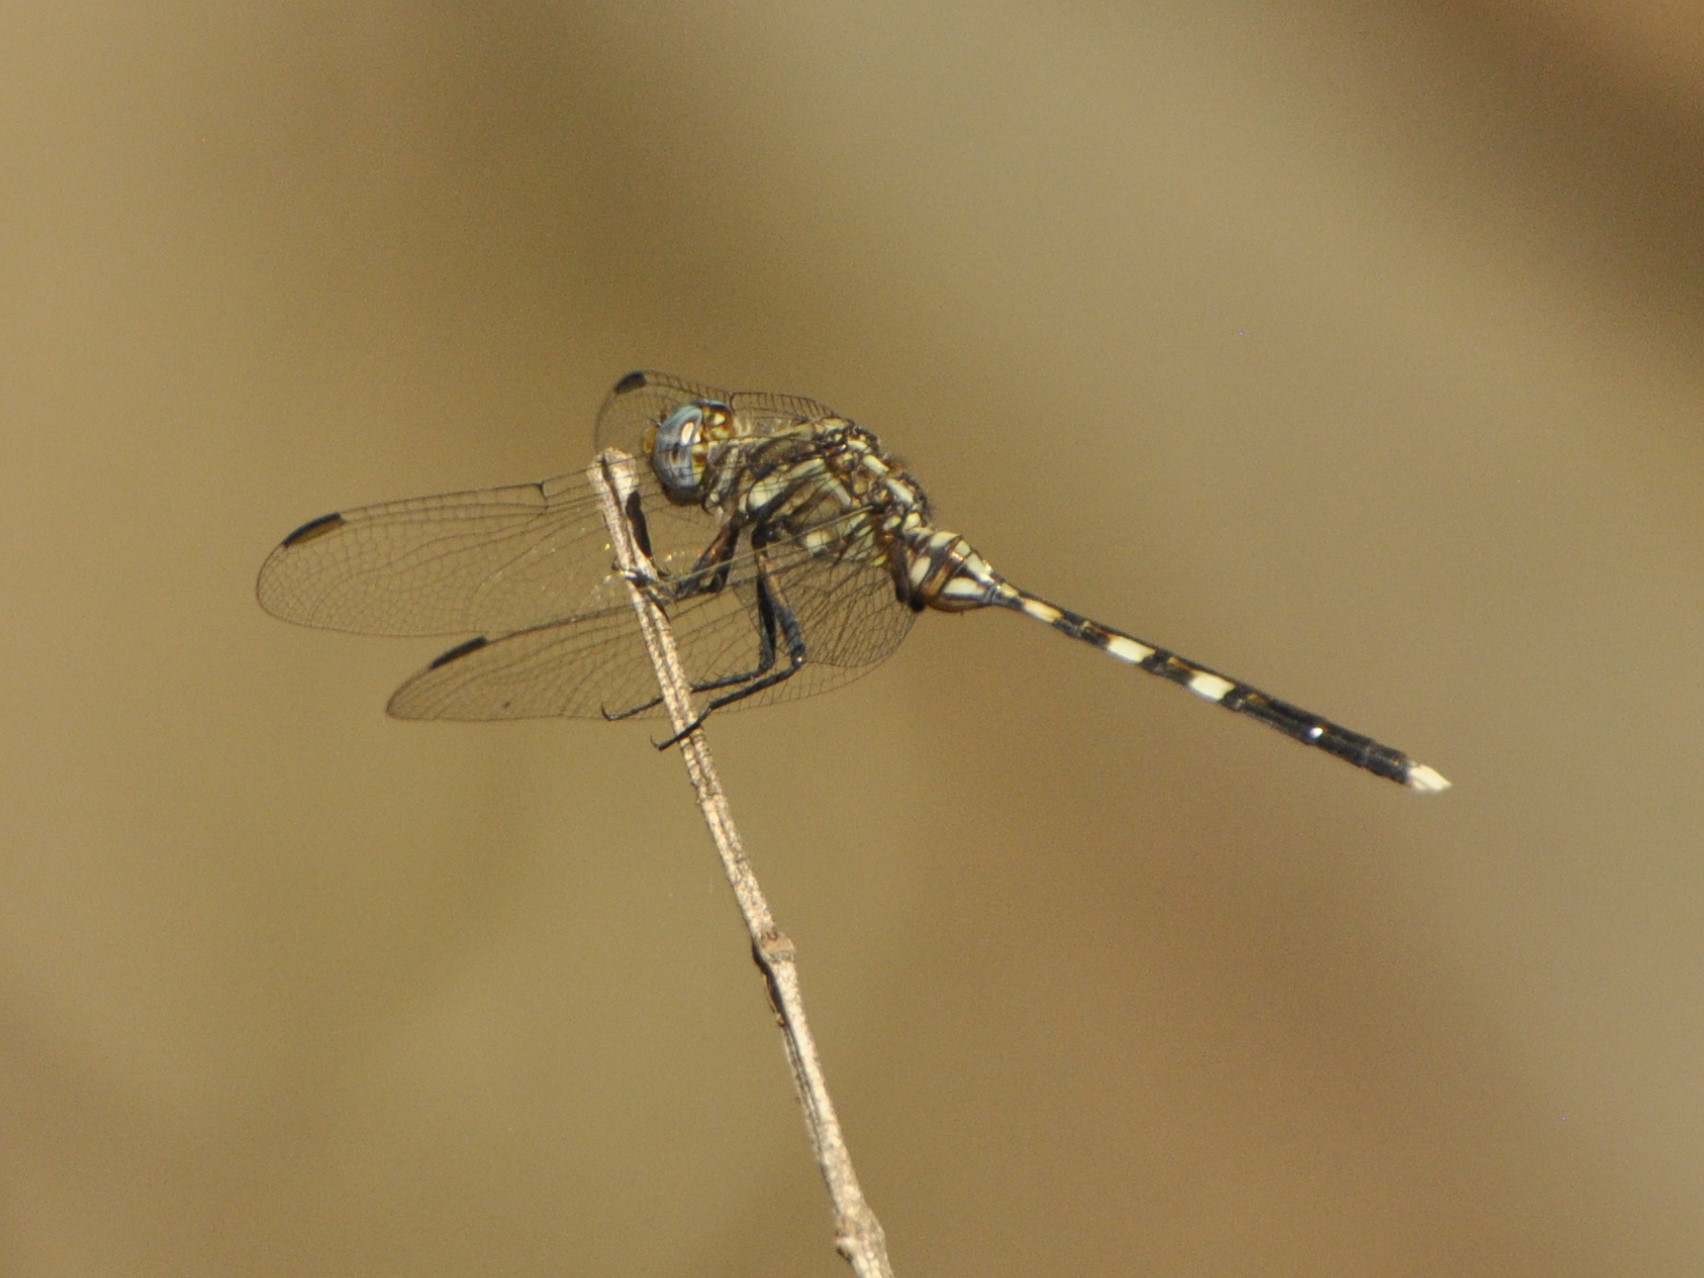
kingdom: Animalia
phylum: Arthropoda
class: Insecta
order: Odonata
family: Libellulidae
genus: Orthetrum
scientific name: Orthetrum stemmale
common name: Bold skimmer
